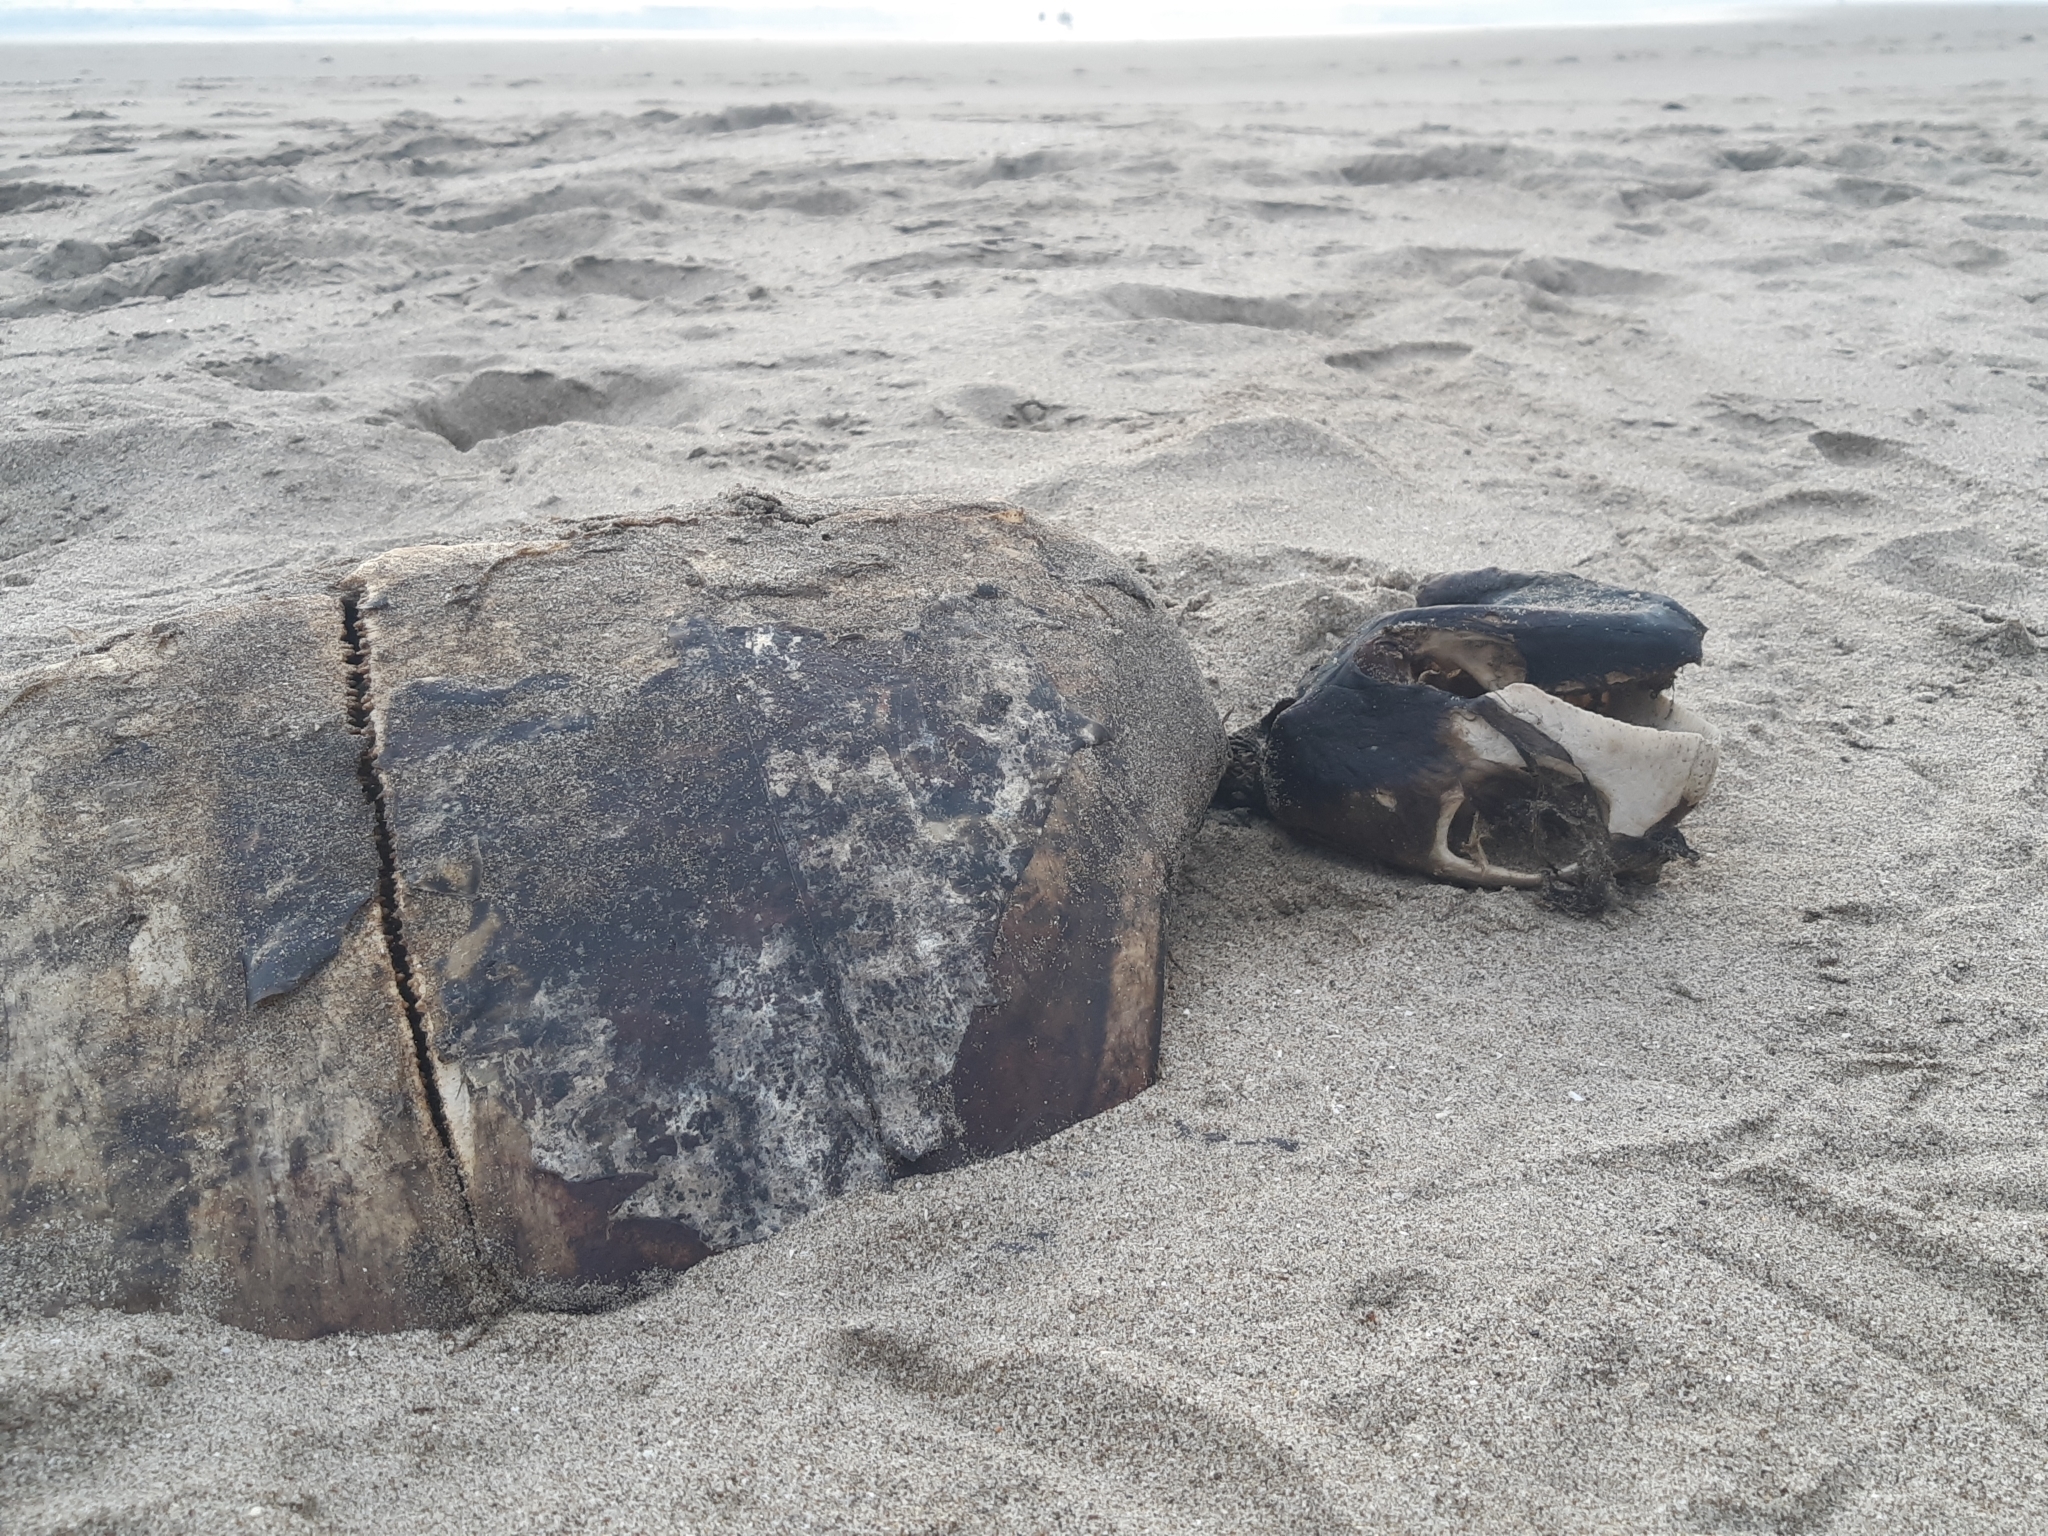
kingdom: Animalia
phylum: Chordata
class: Testudines
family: Cheloniidae
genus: Chelonia
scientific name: Chelonia mydas
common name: Green turtle
